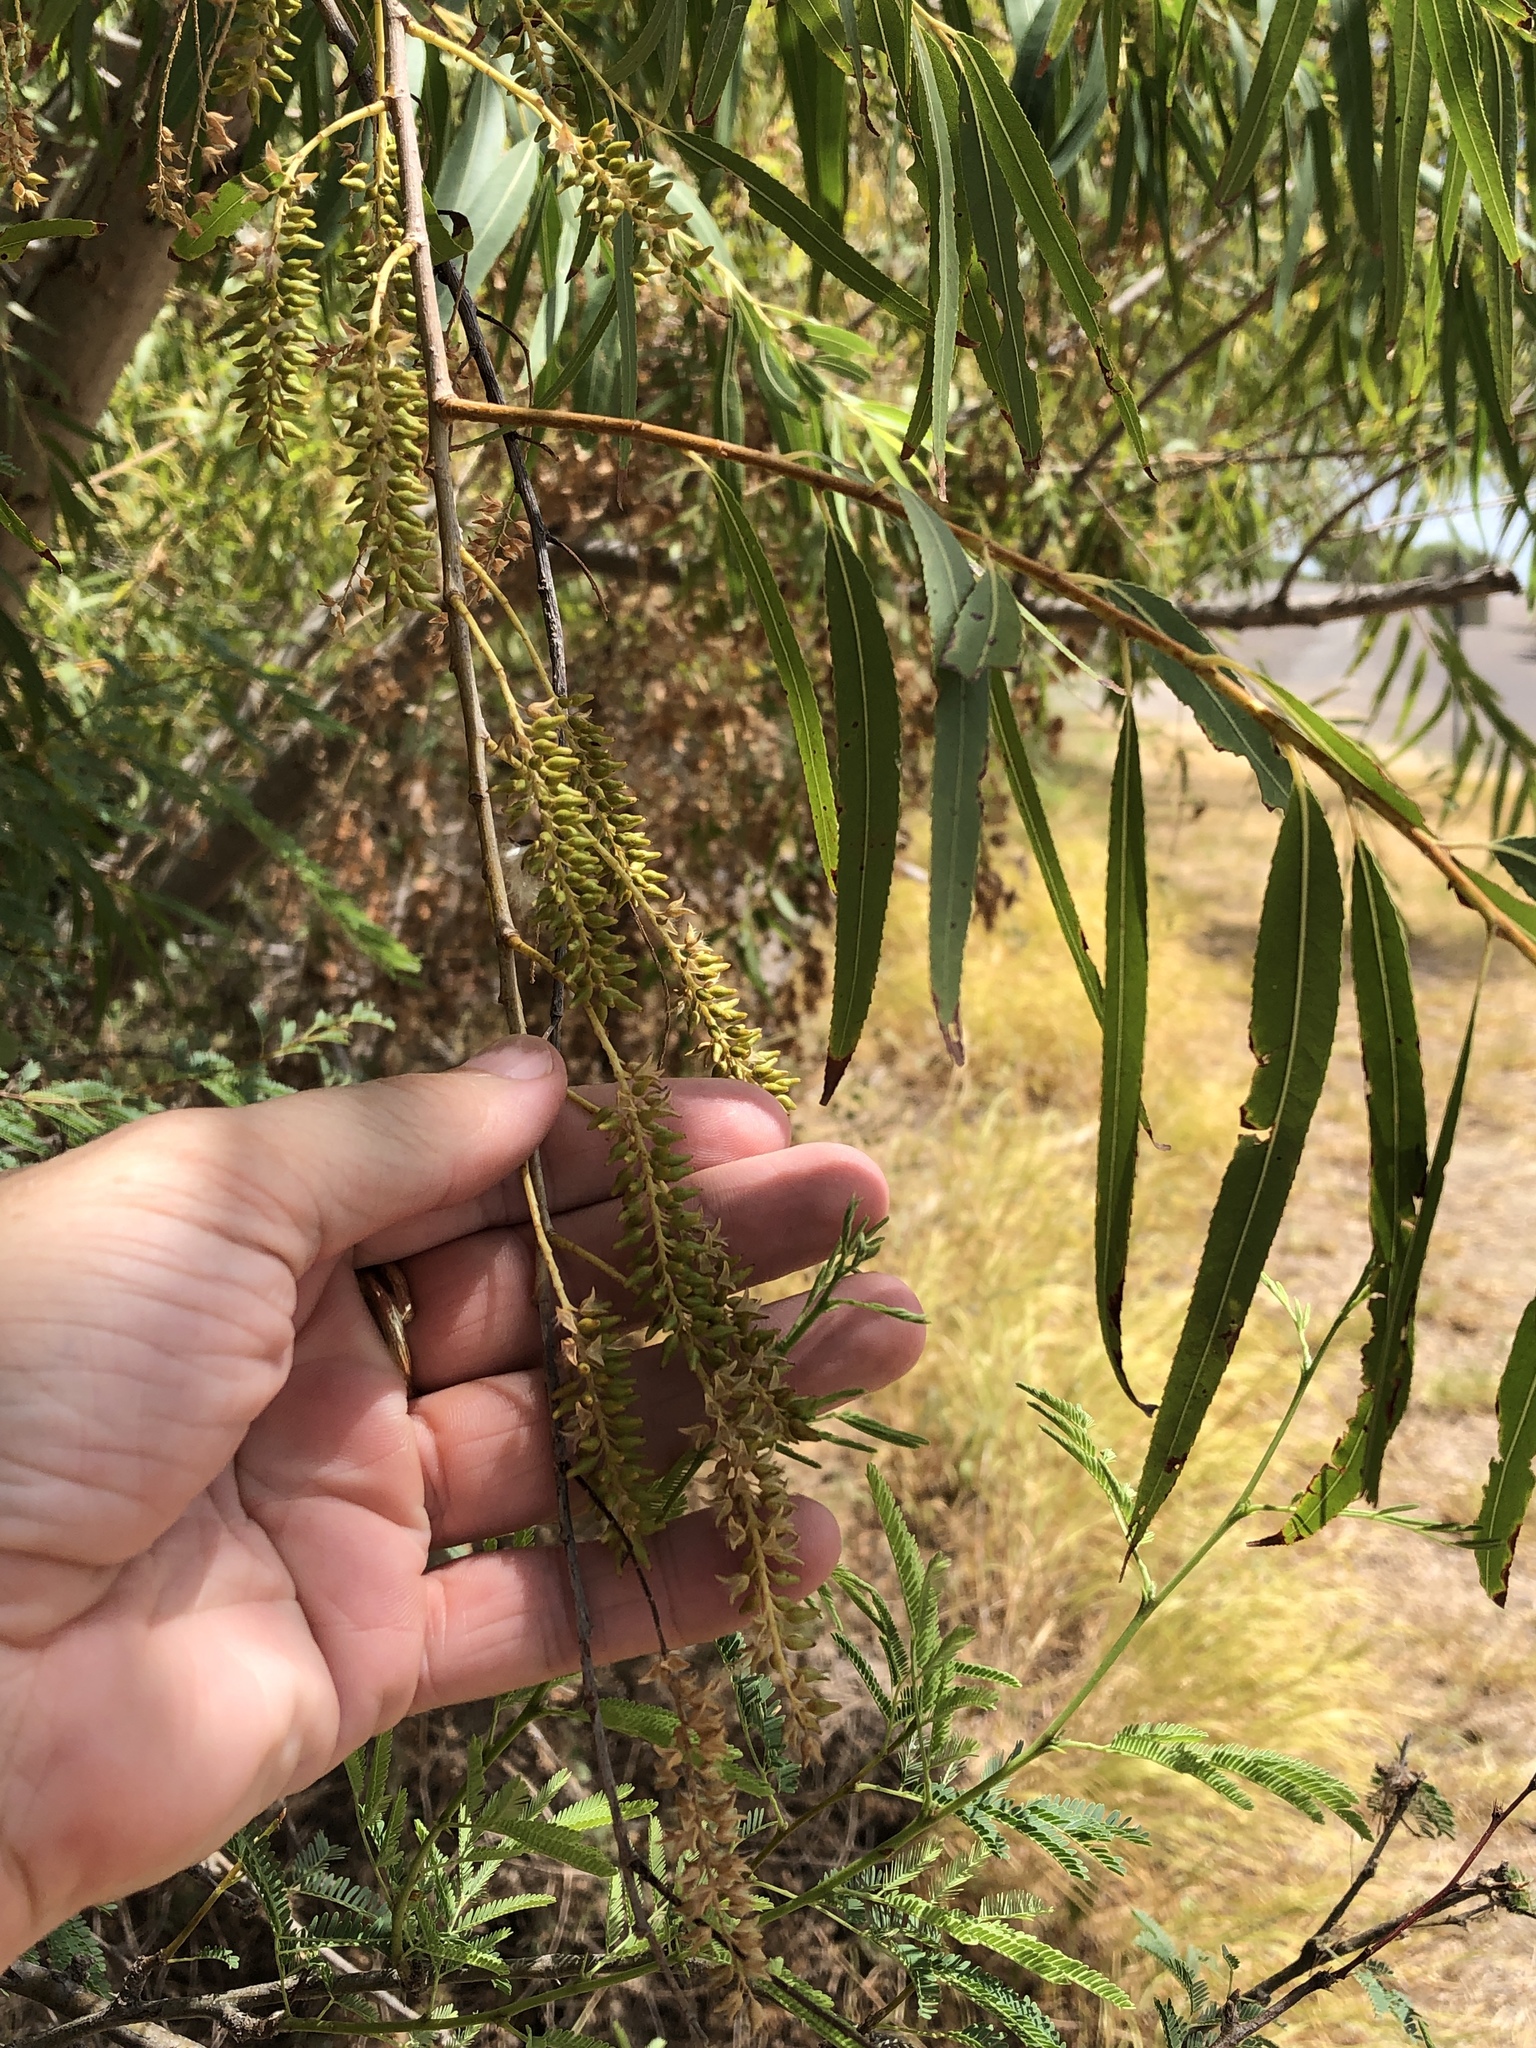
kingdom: Plantae
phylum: Tracheophyta
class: Magnoliopsida
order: Malpighiales
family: Salicaceae
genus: Salix
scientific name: Salix nigra
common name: Black willow
